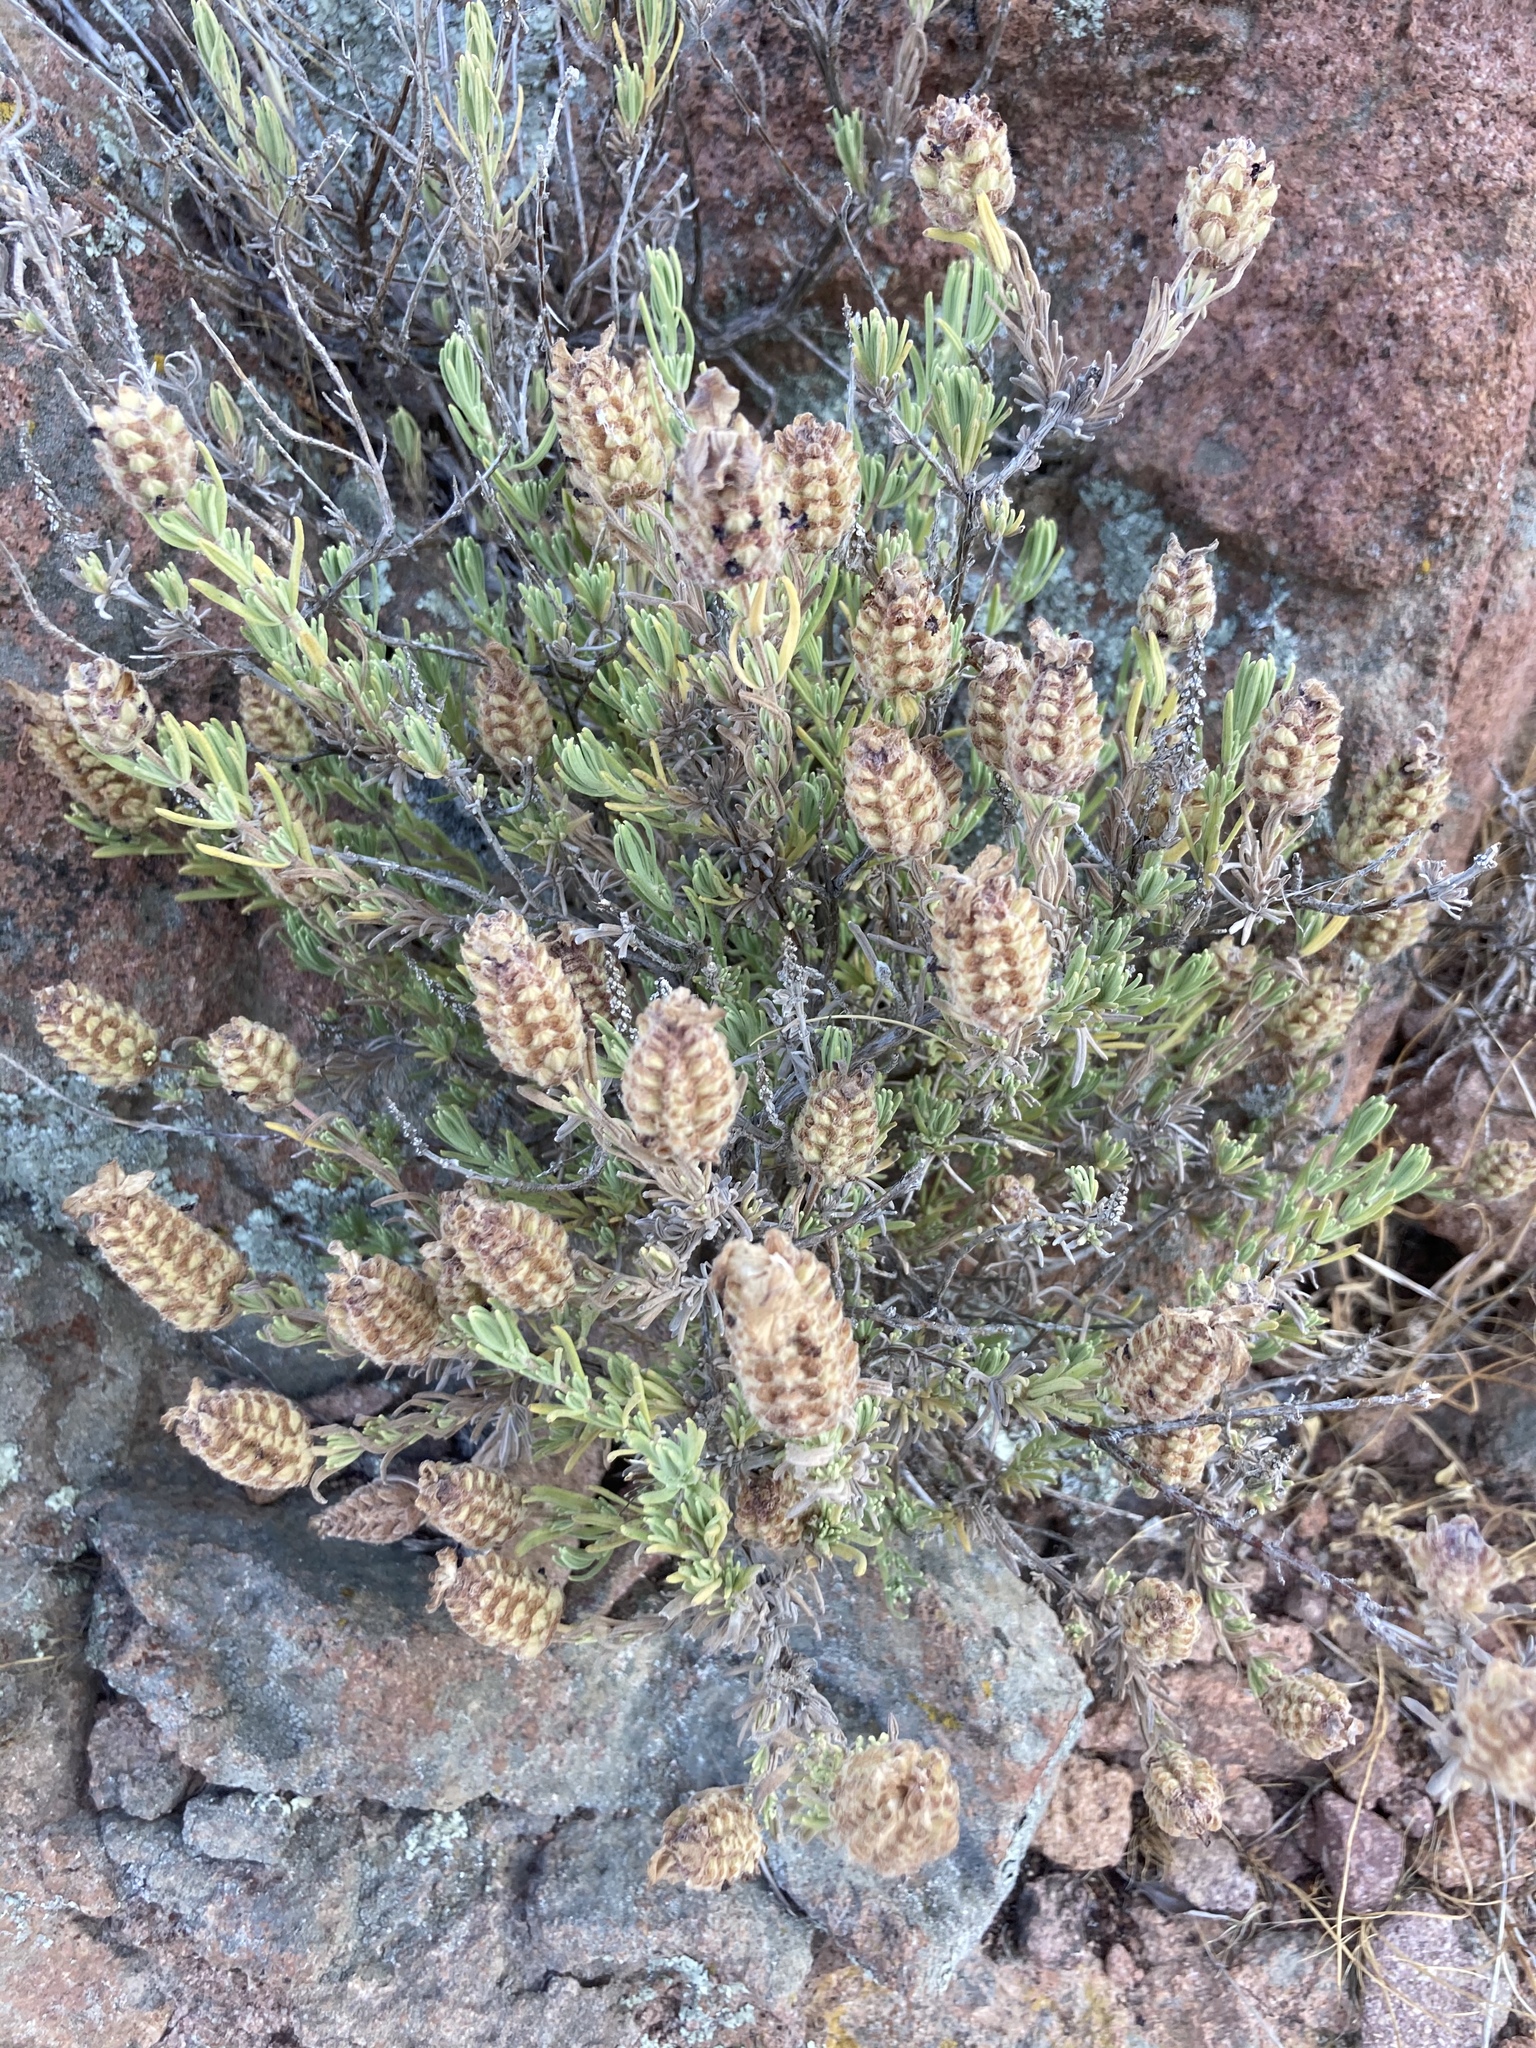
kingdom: Plantae
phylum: Tracheophyta
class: Magnoliopsida
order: Lamiales
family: Lamiaceae
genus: Lavandula
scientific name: Lavandula stoechas
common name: French lavender
